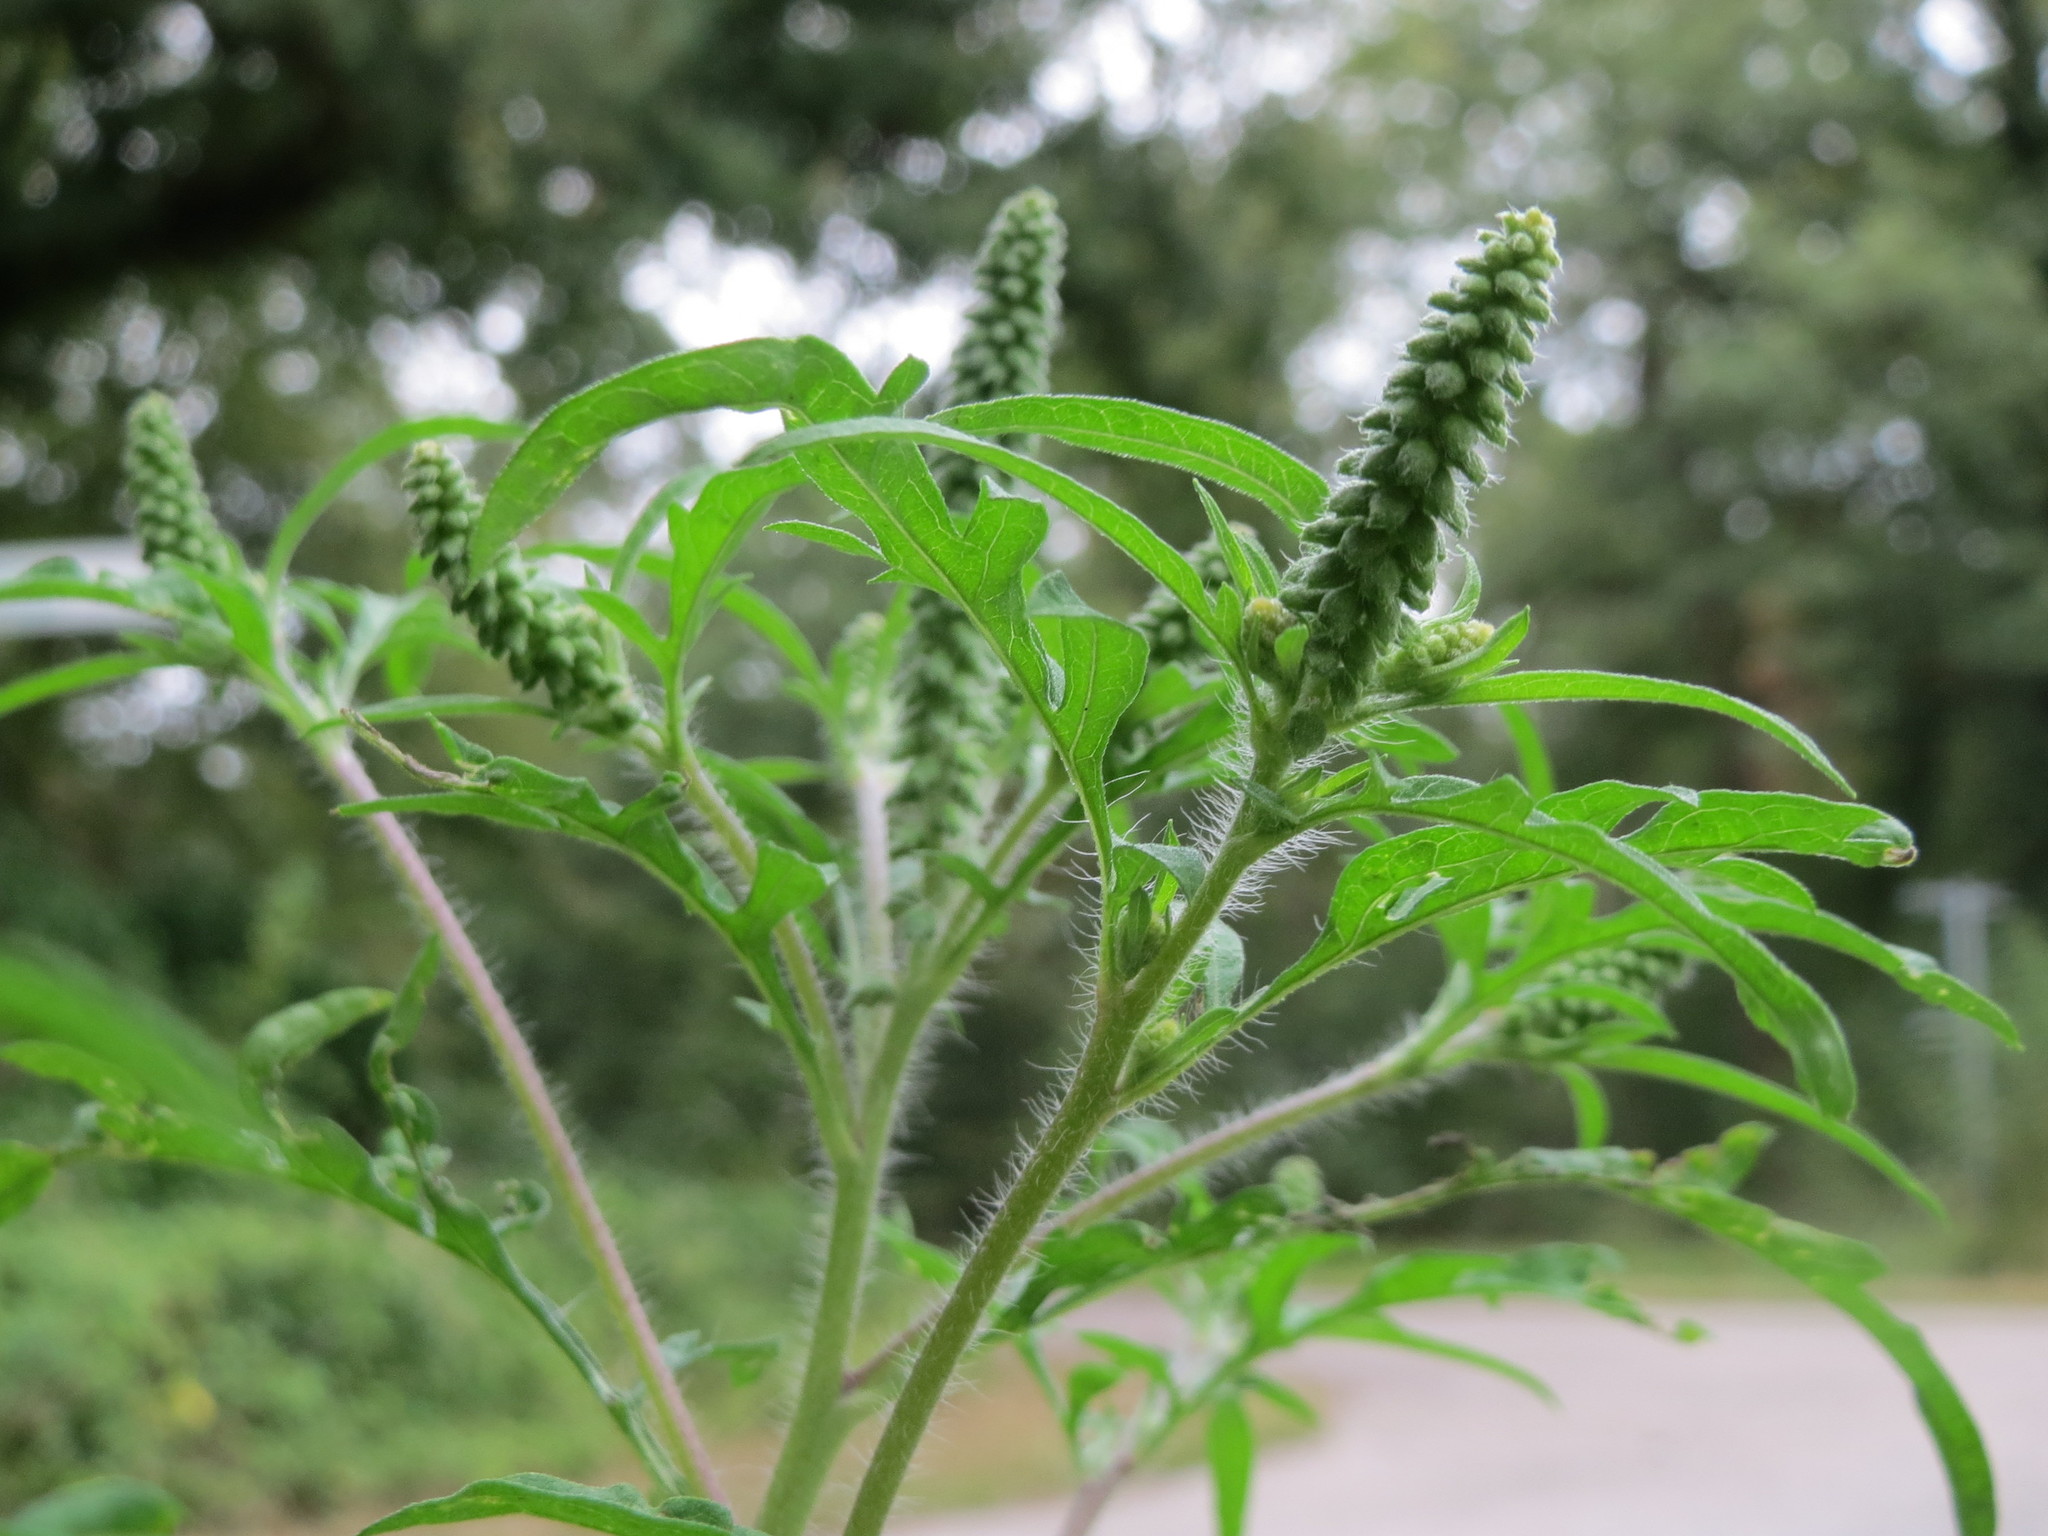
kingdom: Plantae
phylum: Tracheophyta
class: Magnoliopsida
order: Asterales
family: Asteraceae
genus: Ambrosia
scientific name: Ambrosia artemisiifolia
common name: Annual ragweed
